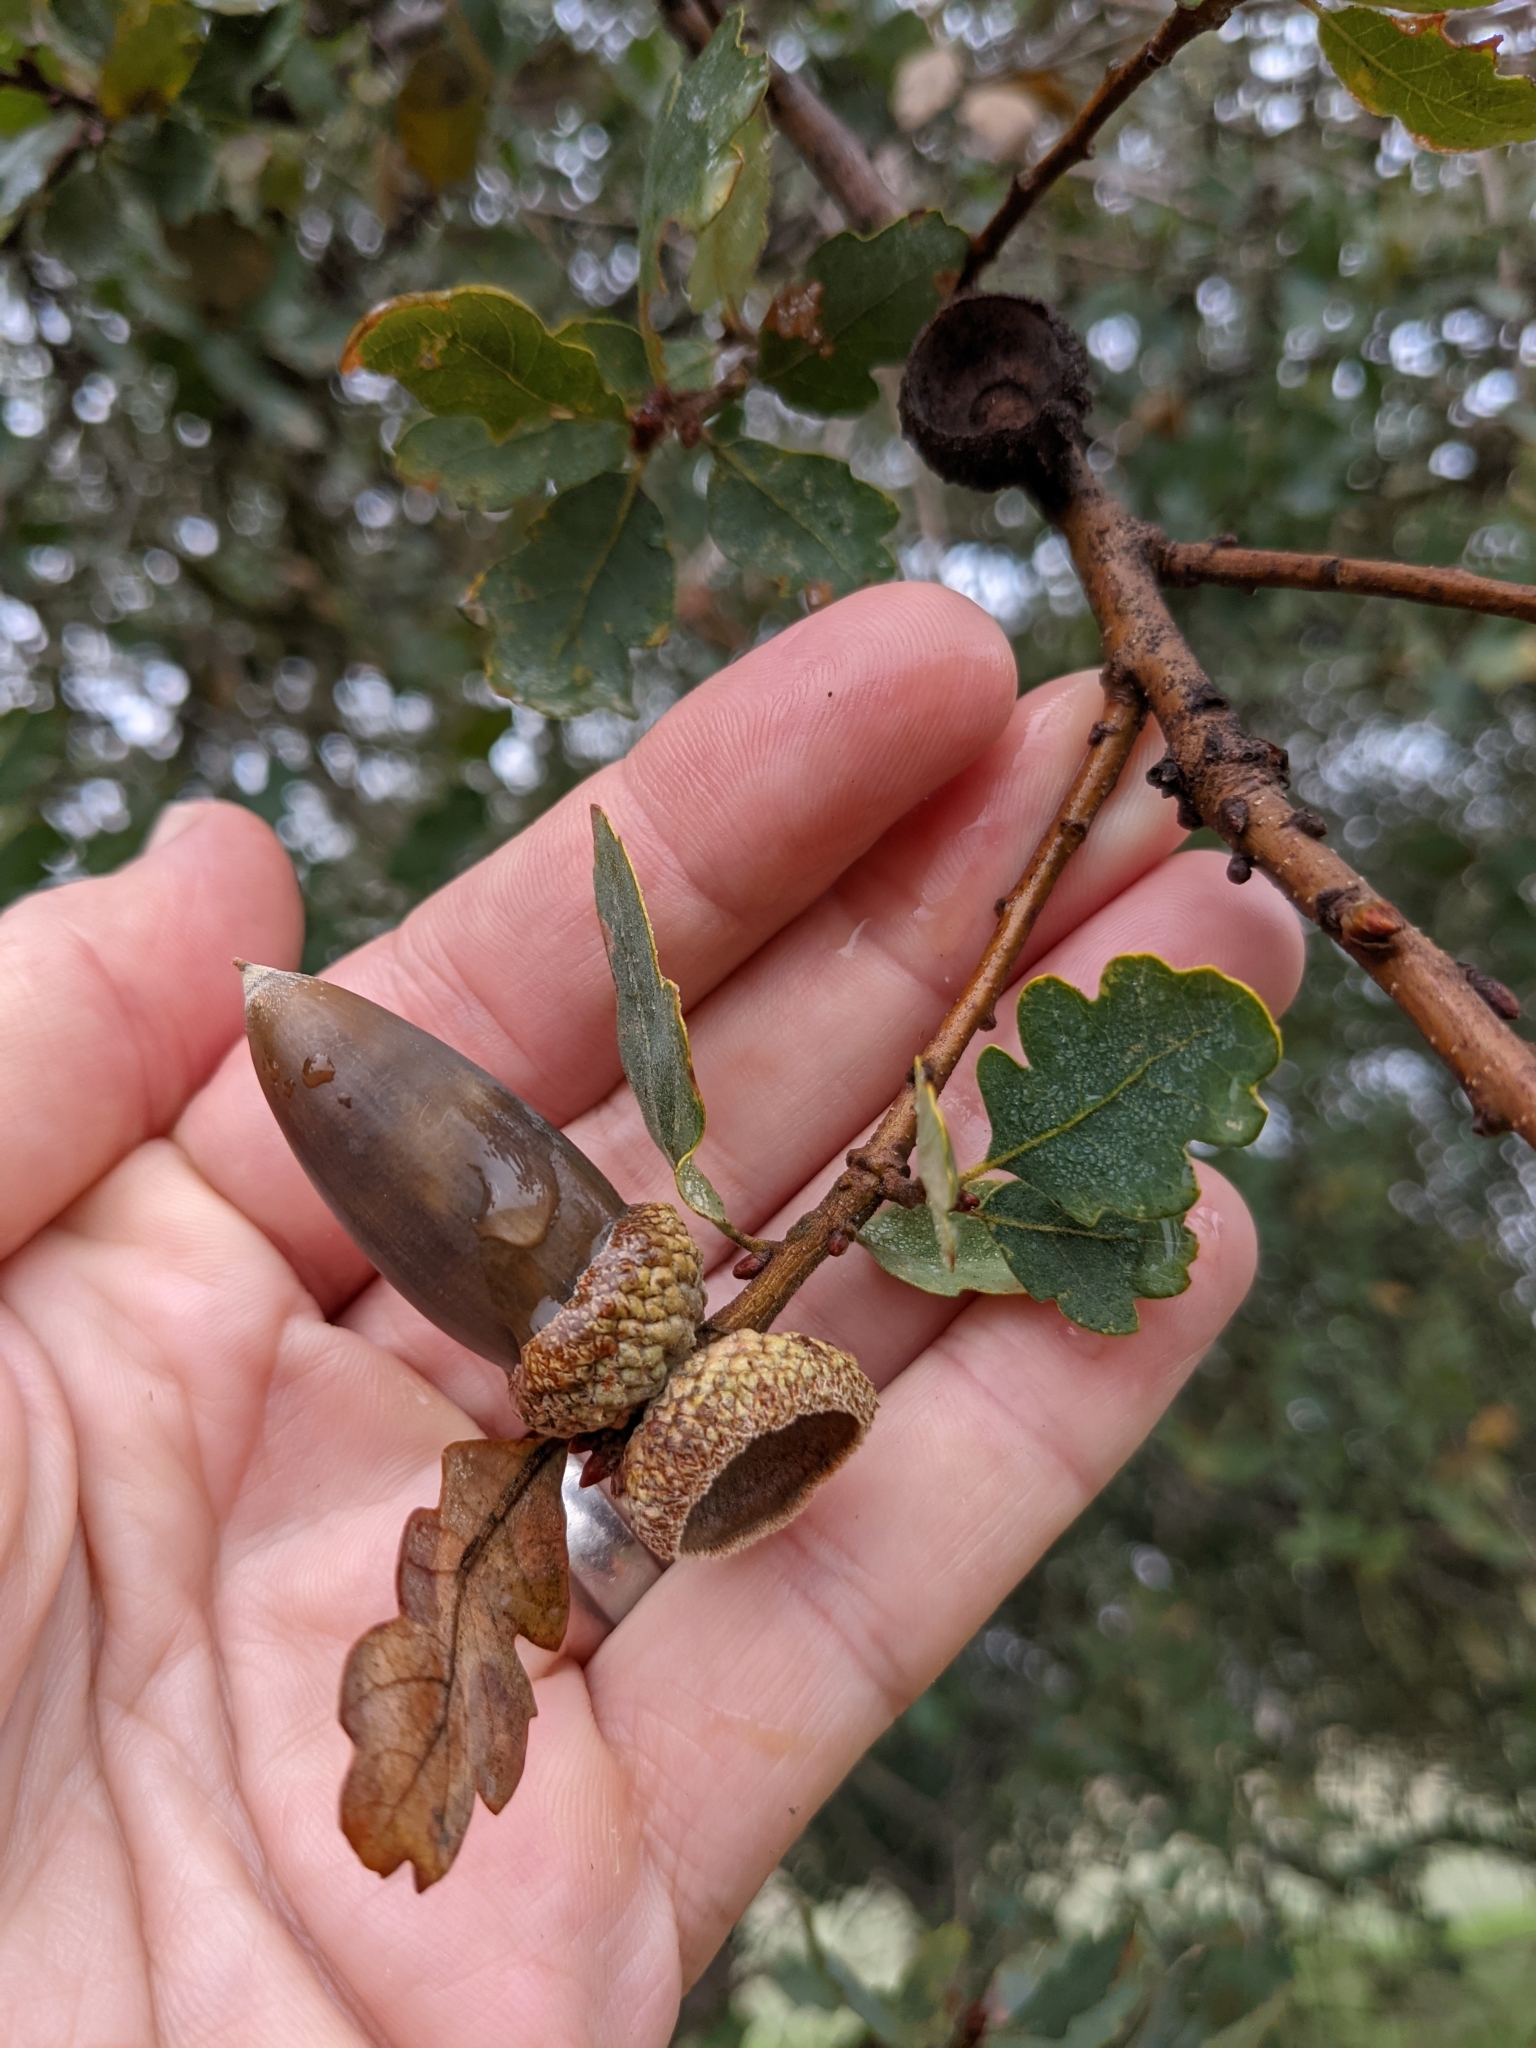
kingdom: Plantae
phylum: Tracheophyta
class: Magnoliopsida
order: Fagales
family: Fagaceae
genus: Quercus
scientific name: Quercus douglasii
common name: Blue oak
